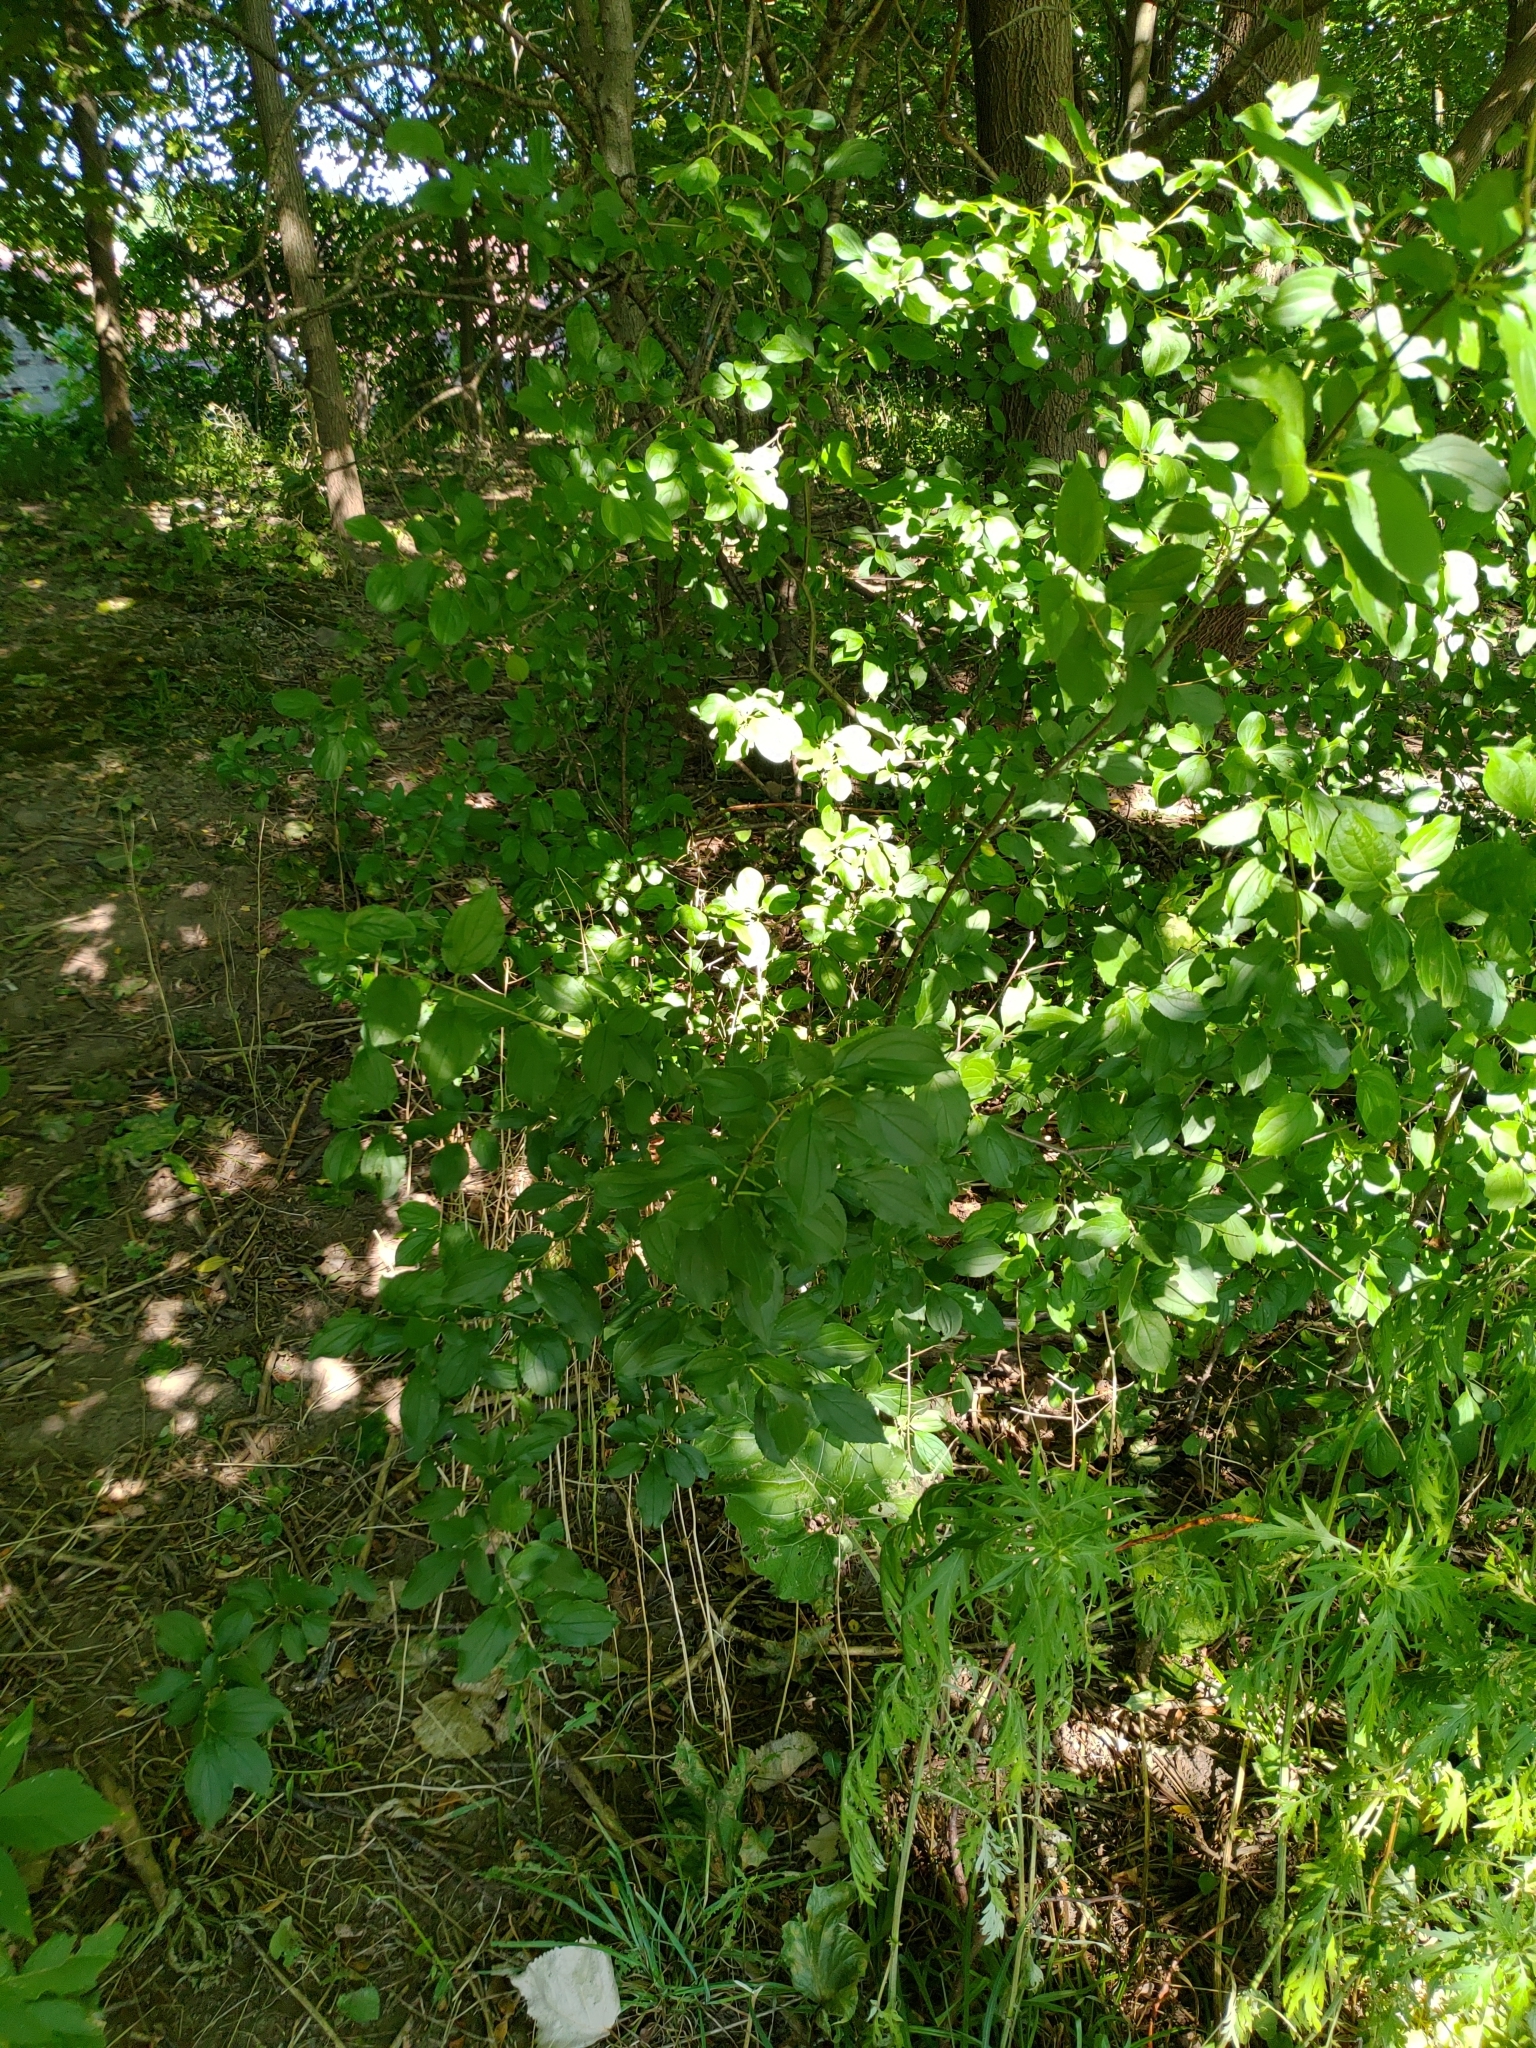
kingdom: Plantae
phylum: Tracheophyta
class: Magnoliopsida
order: Rosales
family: Rhamnaceae
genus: Rhamnus
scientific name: Rhamnus cathartica
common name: Common buckthorn
